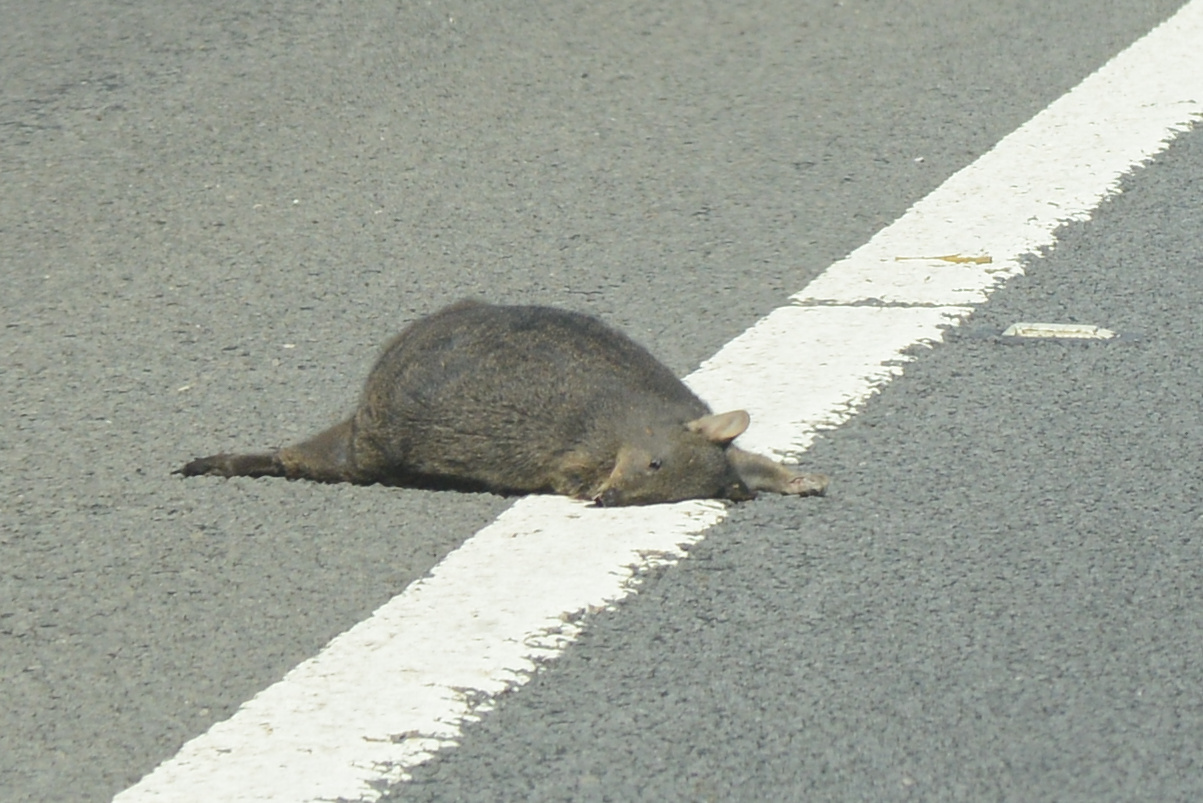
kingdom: Animalia
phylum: Chordata
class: Mammalia
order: Diprotodontia
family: Macropodidae
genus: Thylogale
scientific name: Thylogale billardierii
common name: Tasmanian pademelon
